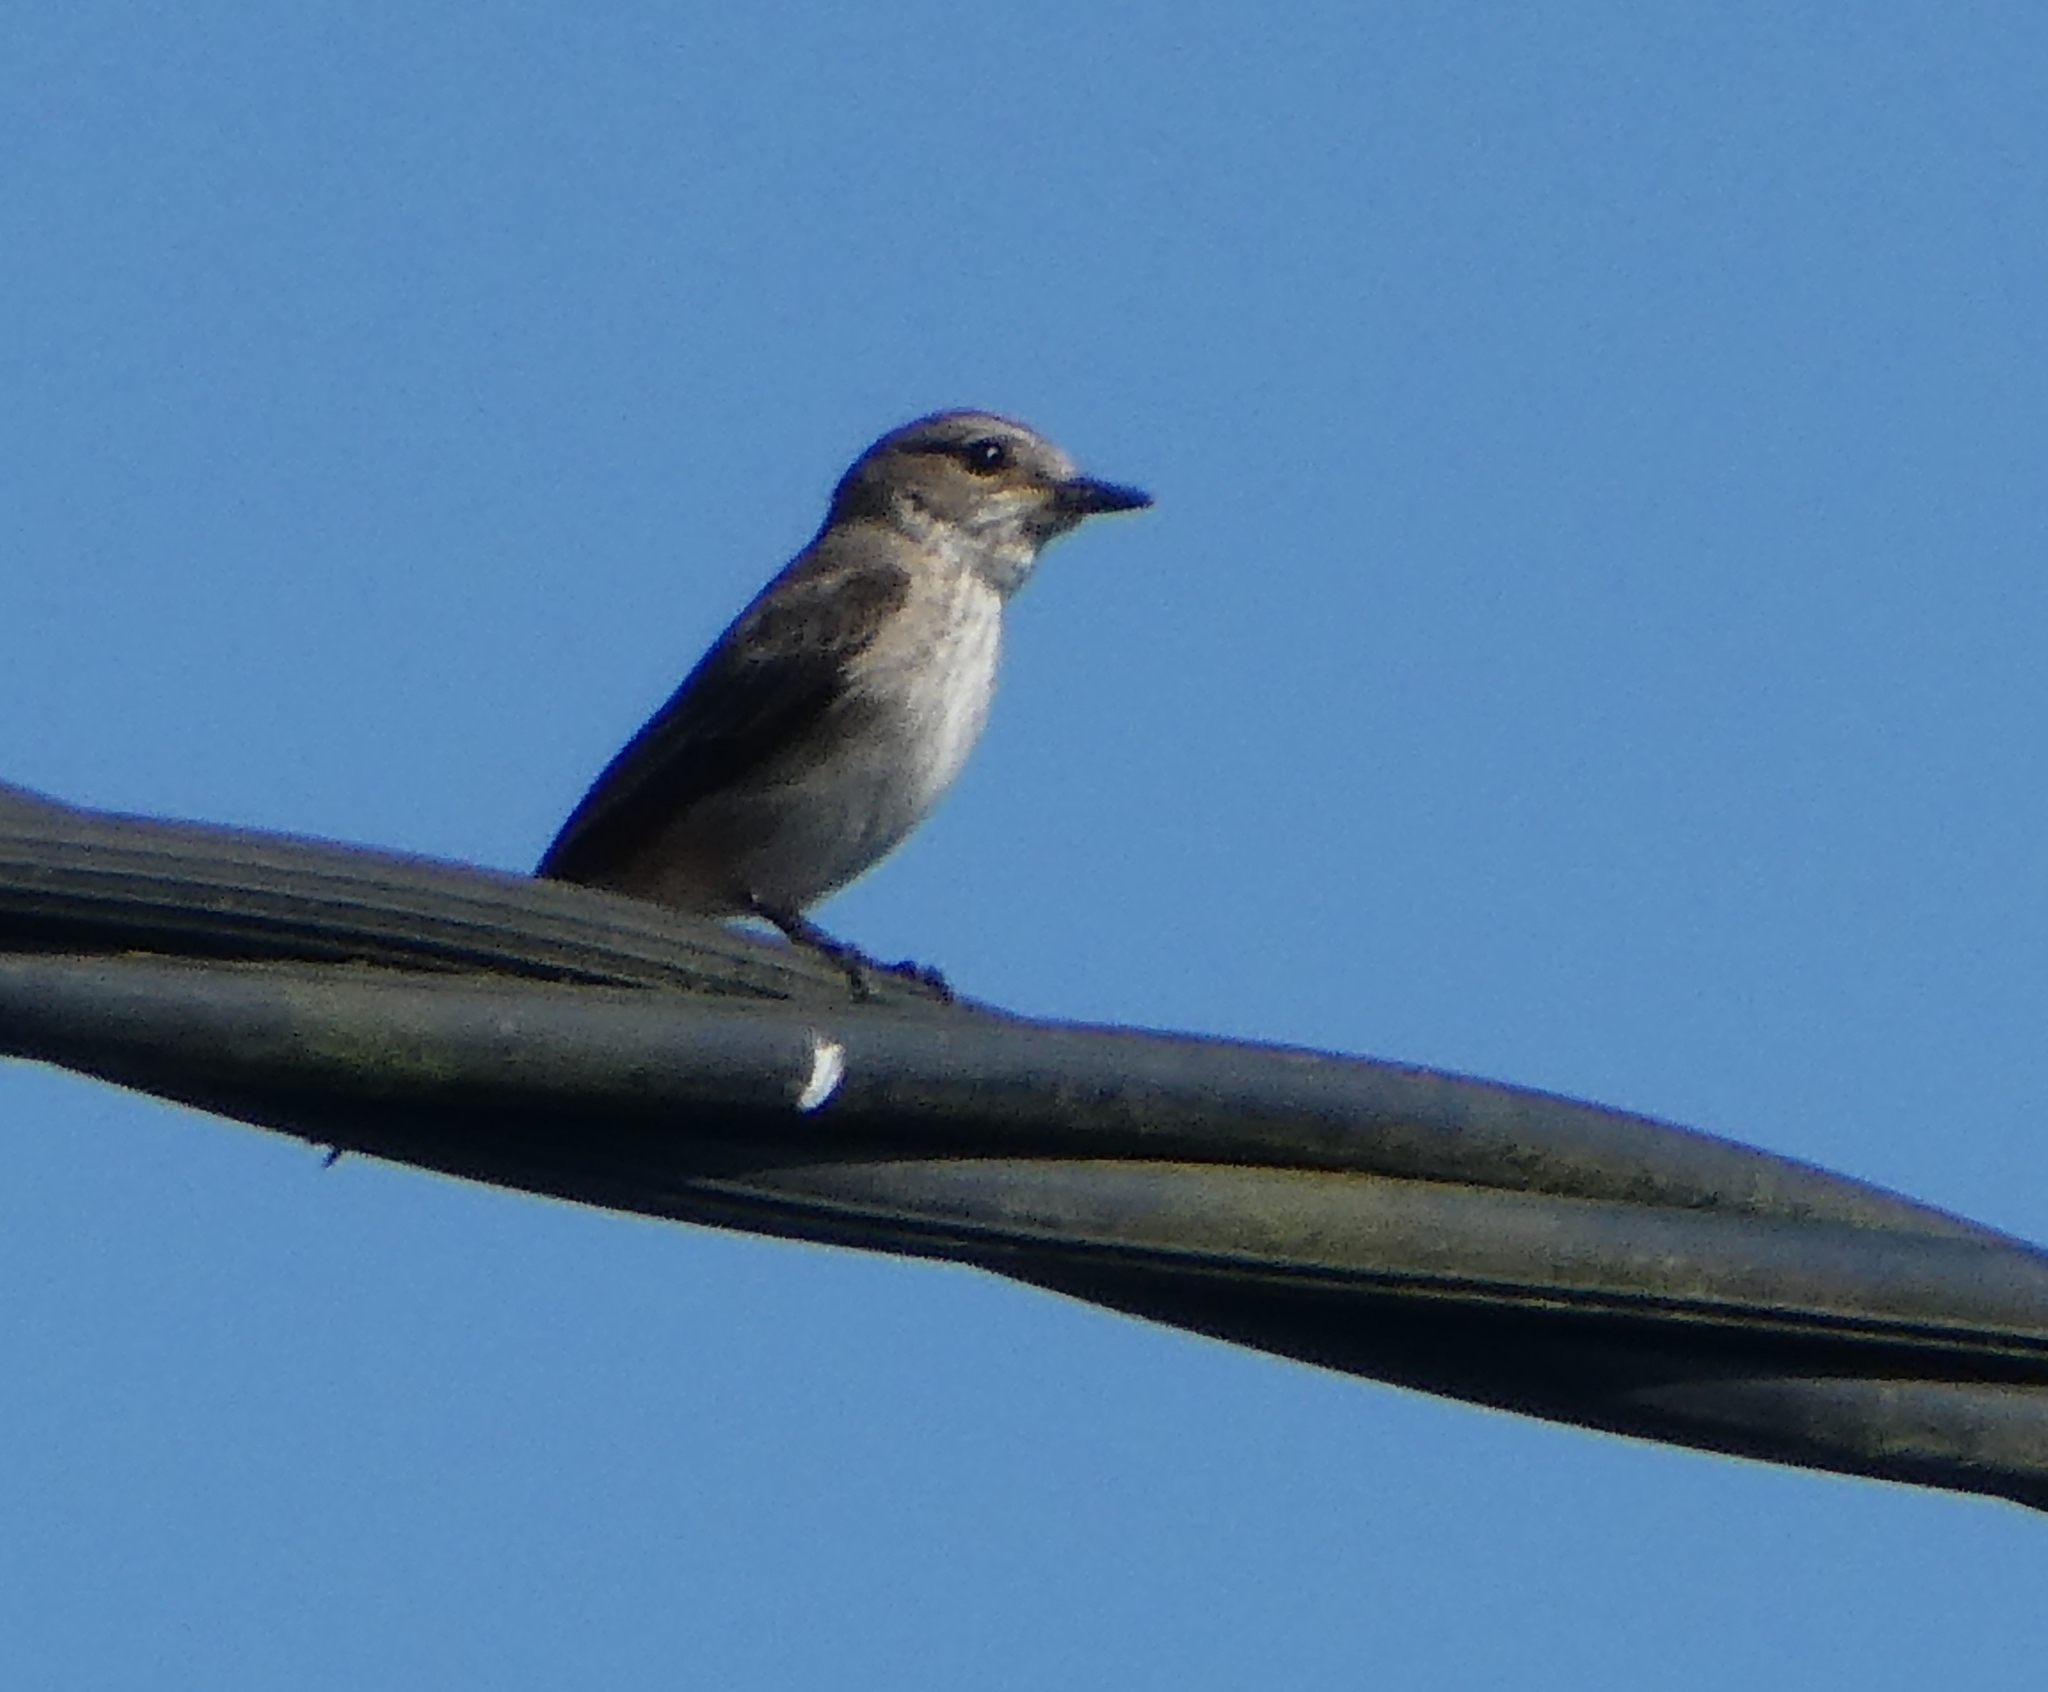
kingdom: Animalia
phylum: Chordata
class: Aves
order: Passeriformes
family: Muscicapidae
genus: Muscicapa
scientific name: Muscicapa striata
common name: Spotted flycatcher
